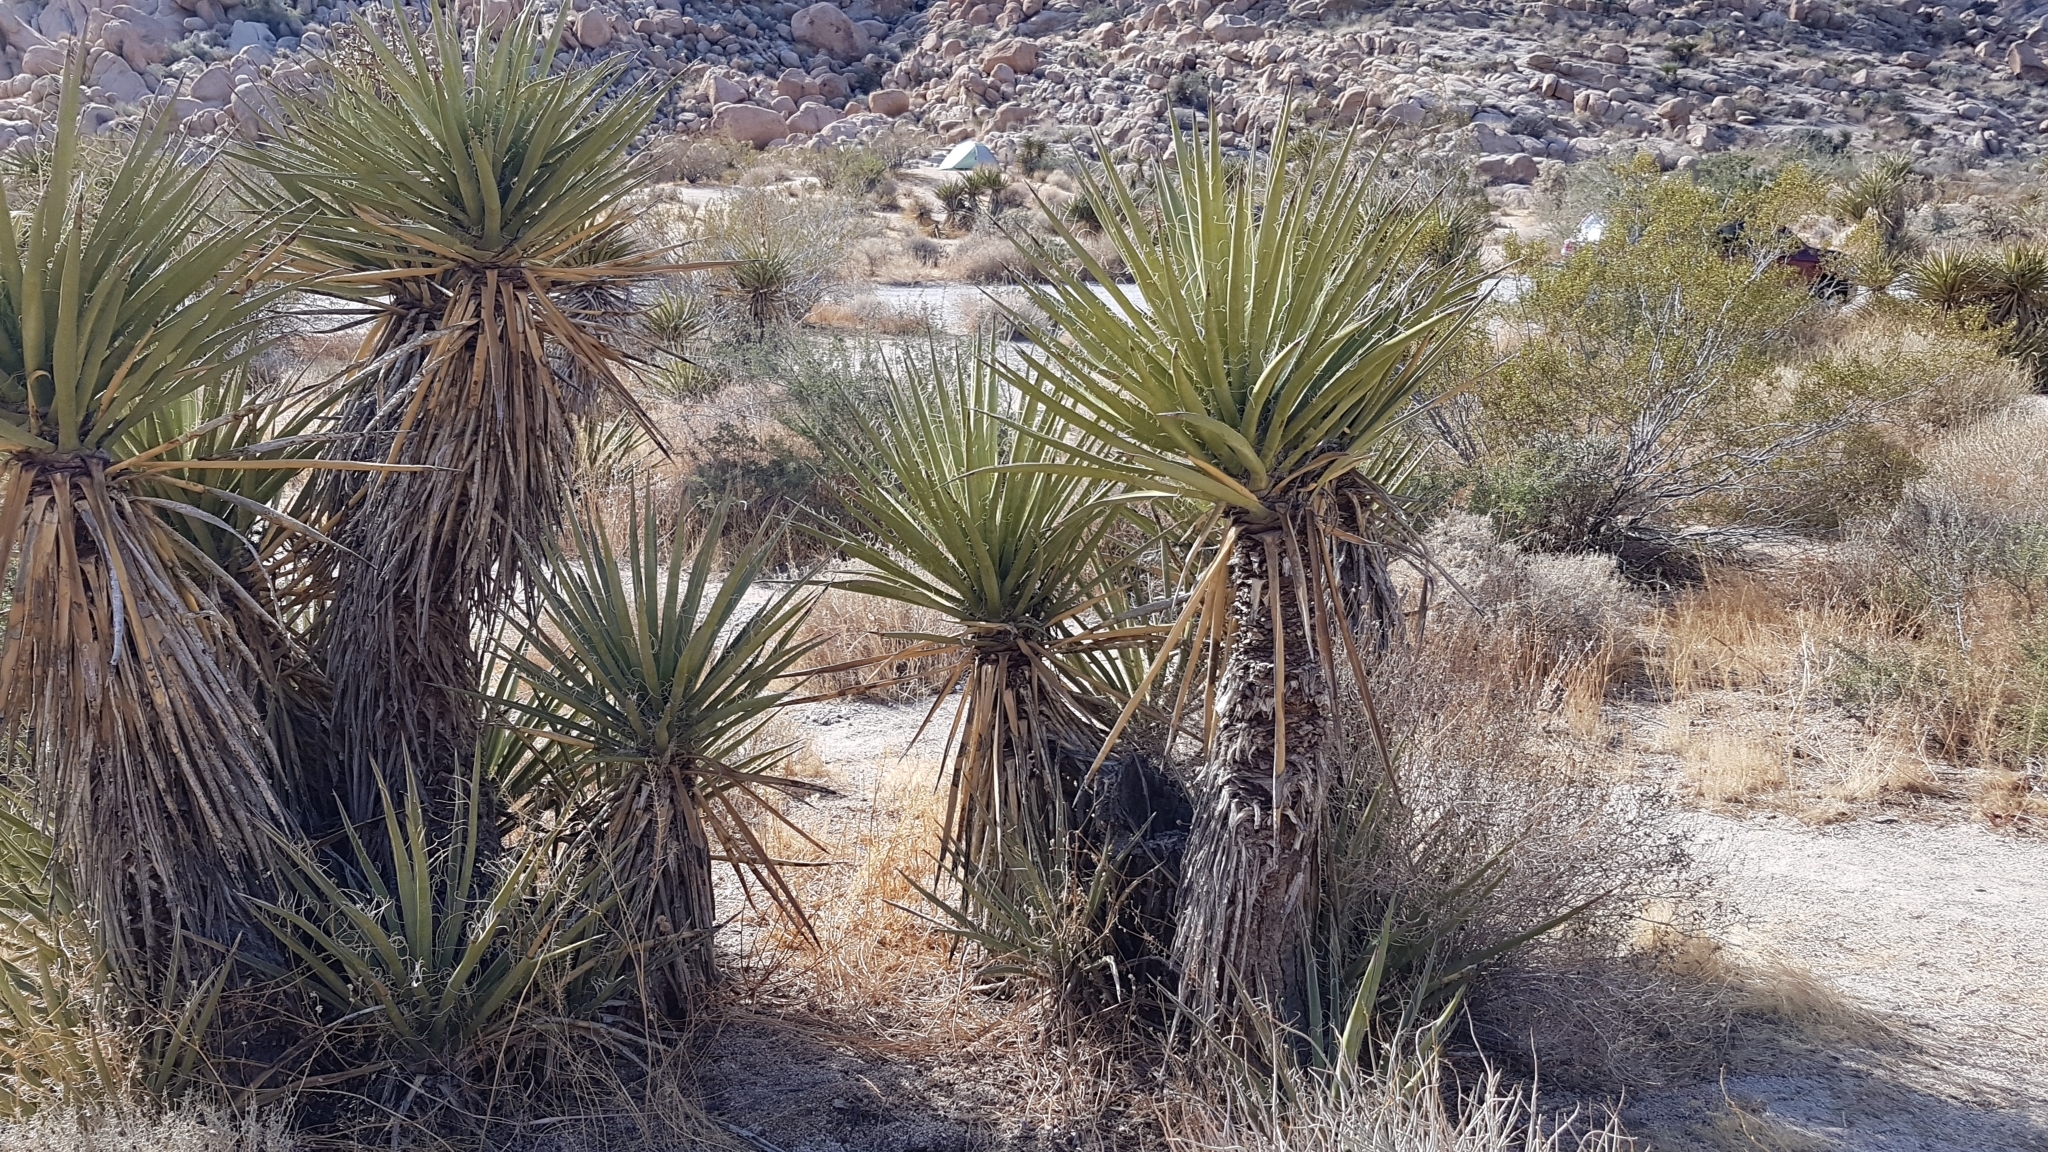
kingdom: Plantae
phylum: Tracheophyta
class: Liliopsida
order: Asparagales
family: Asparagaceae
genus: Yucca
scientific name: Yucca schidigera
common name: Mojave yucca
